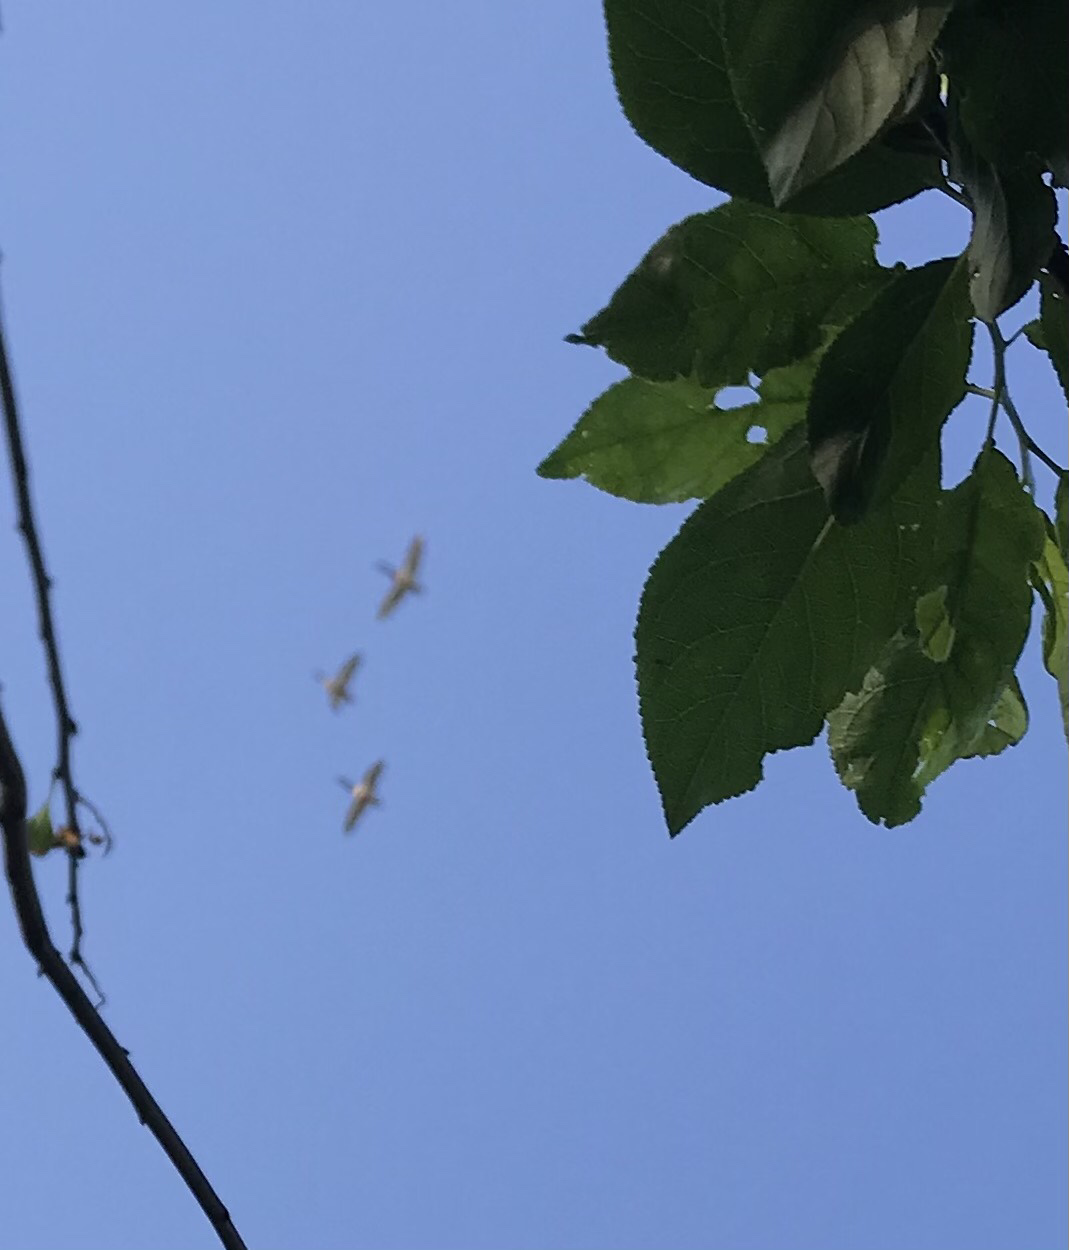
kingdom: Animalia
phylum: Chordata
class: Aves
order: Anseriformes
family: Anatidae
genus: Anas
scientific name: Anas platyrhynchos
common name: Mallard
